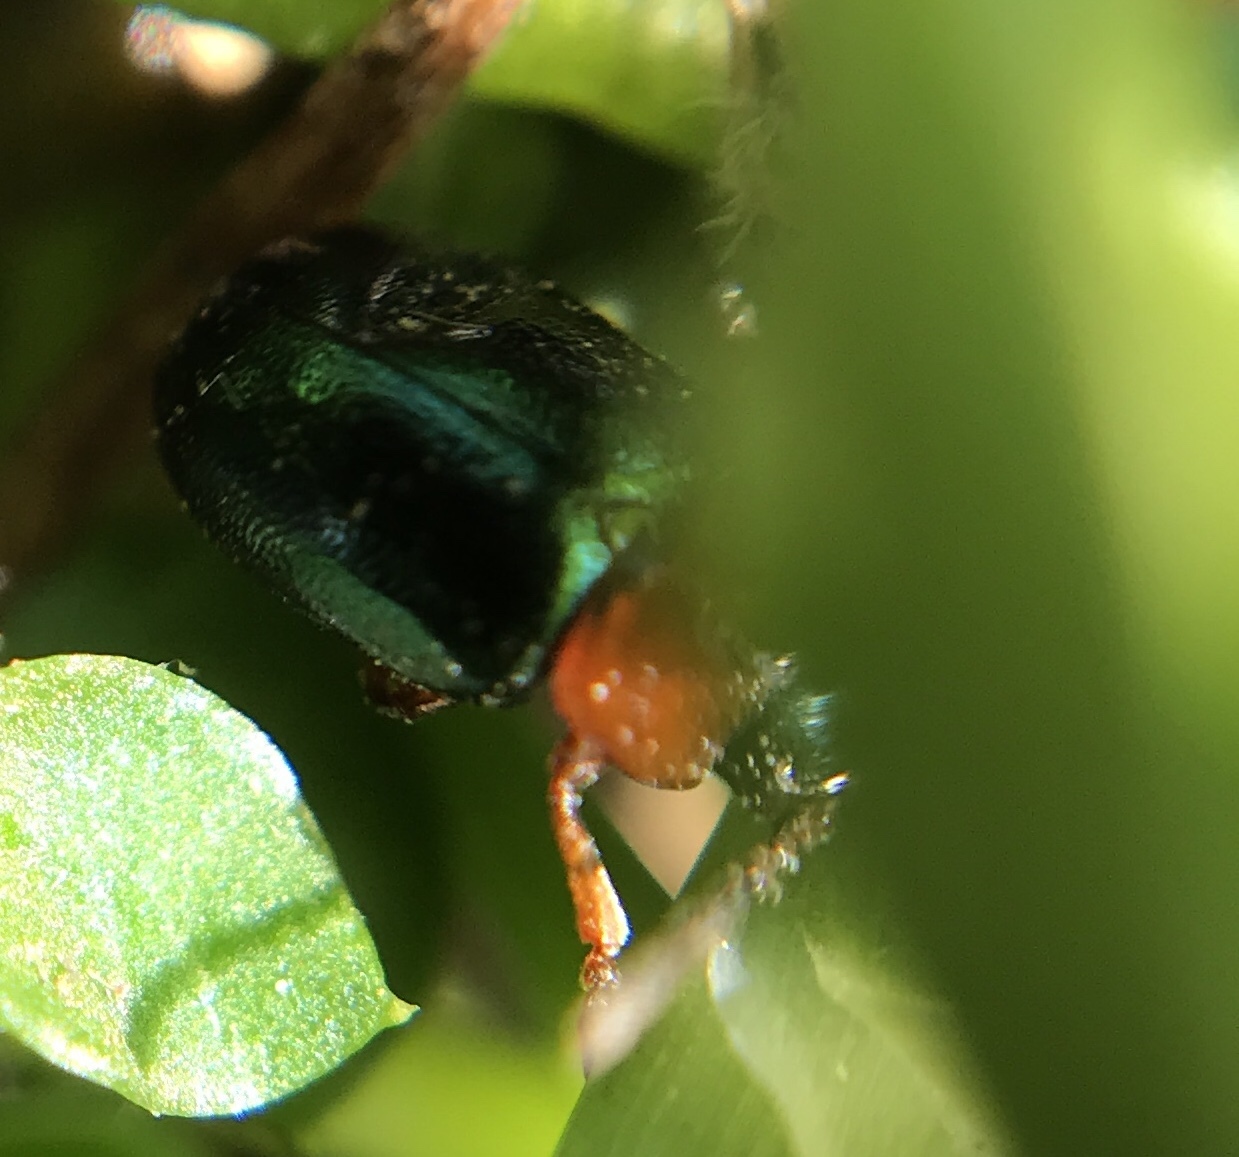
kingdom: Animalia
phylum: Arthropoda
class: Insecta
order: Coleoptera
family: Chrysomelidae
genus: Gastrophysa
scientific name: Gastrophysa polygoni
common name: Knotweed leaf beetle
